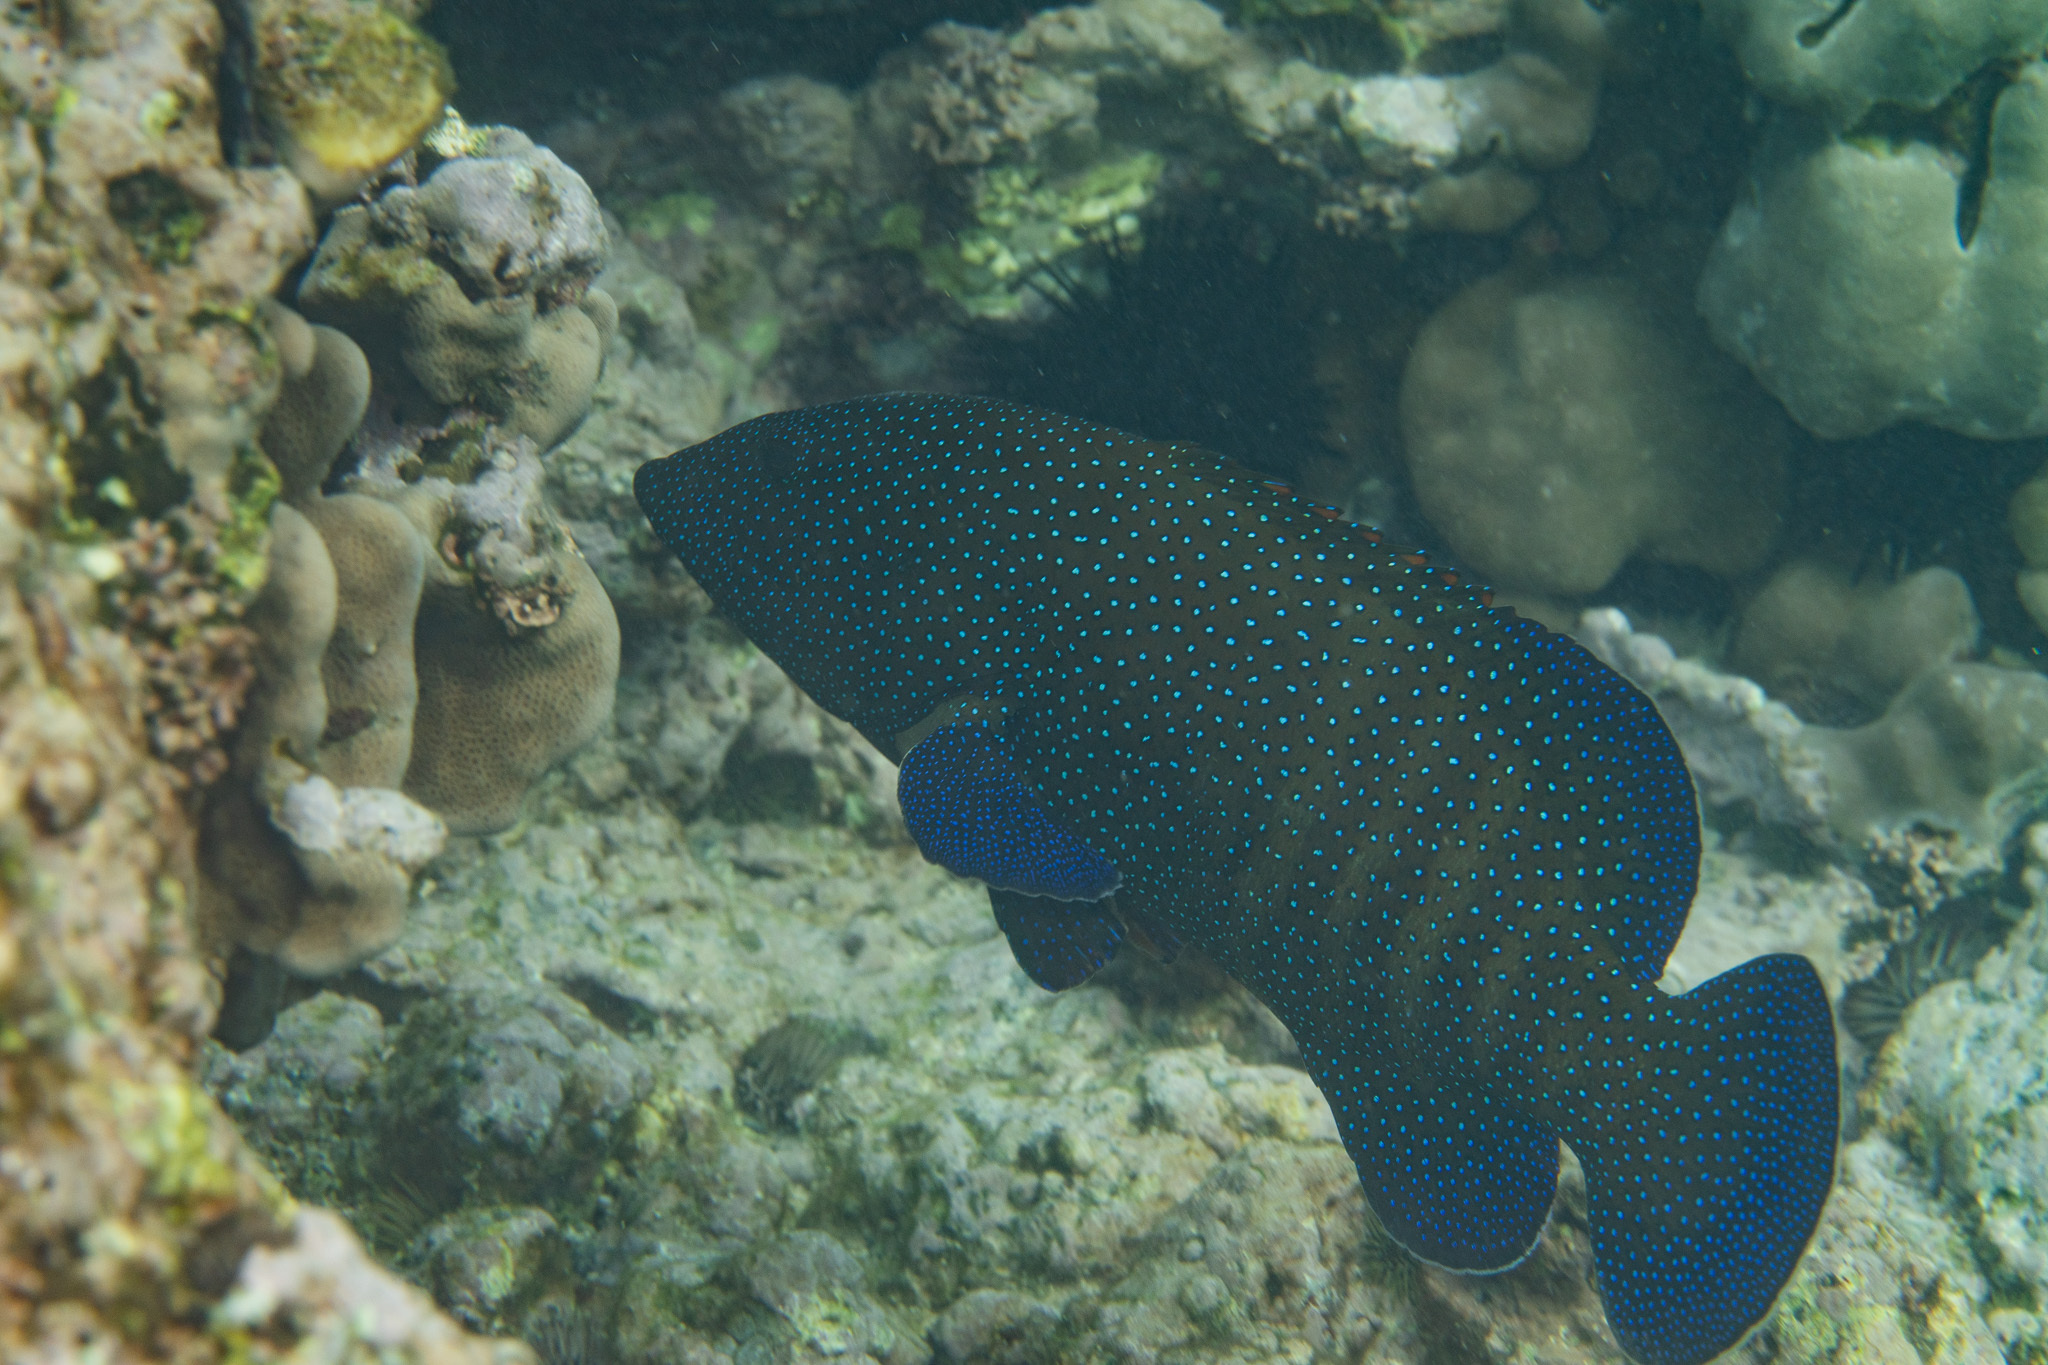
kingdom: Animalia
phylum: Chordata
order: Perciformes
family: Serranidae
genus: Cephalopholis
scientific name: Cephalopholis argus
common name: Peacock grouper
